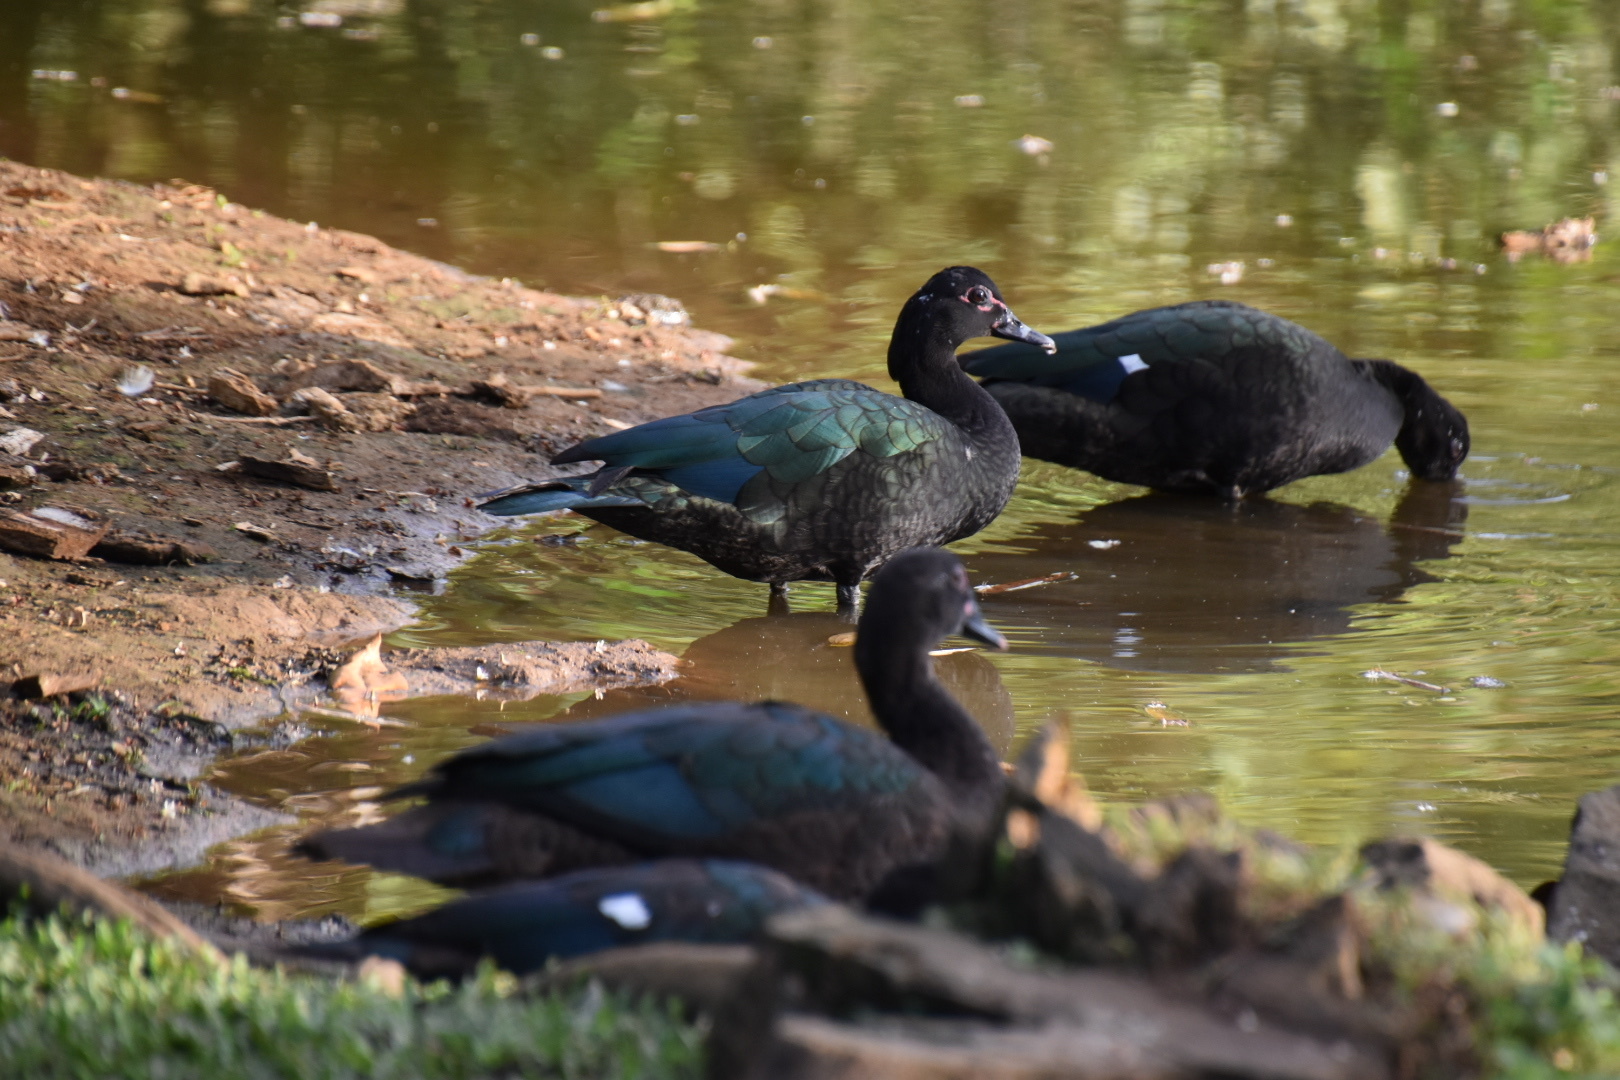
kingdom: Animalia
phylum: Chordata
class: Aves
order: Anseriformes
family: Anatidae
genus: Cairina
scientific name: Cairina moschata
